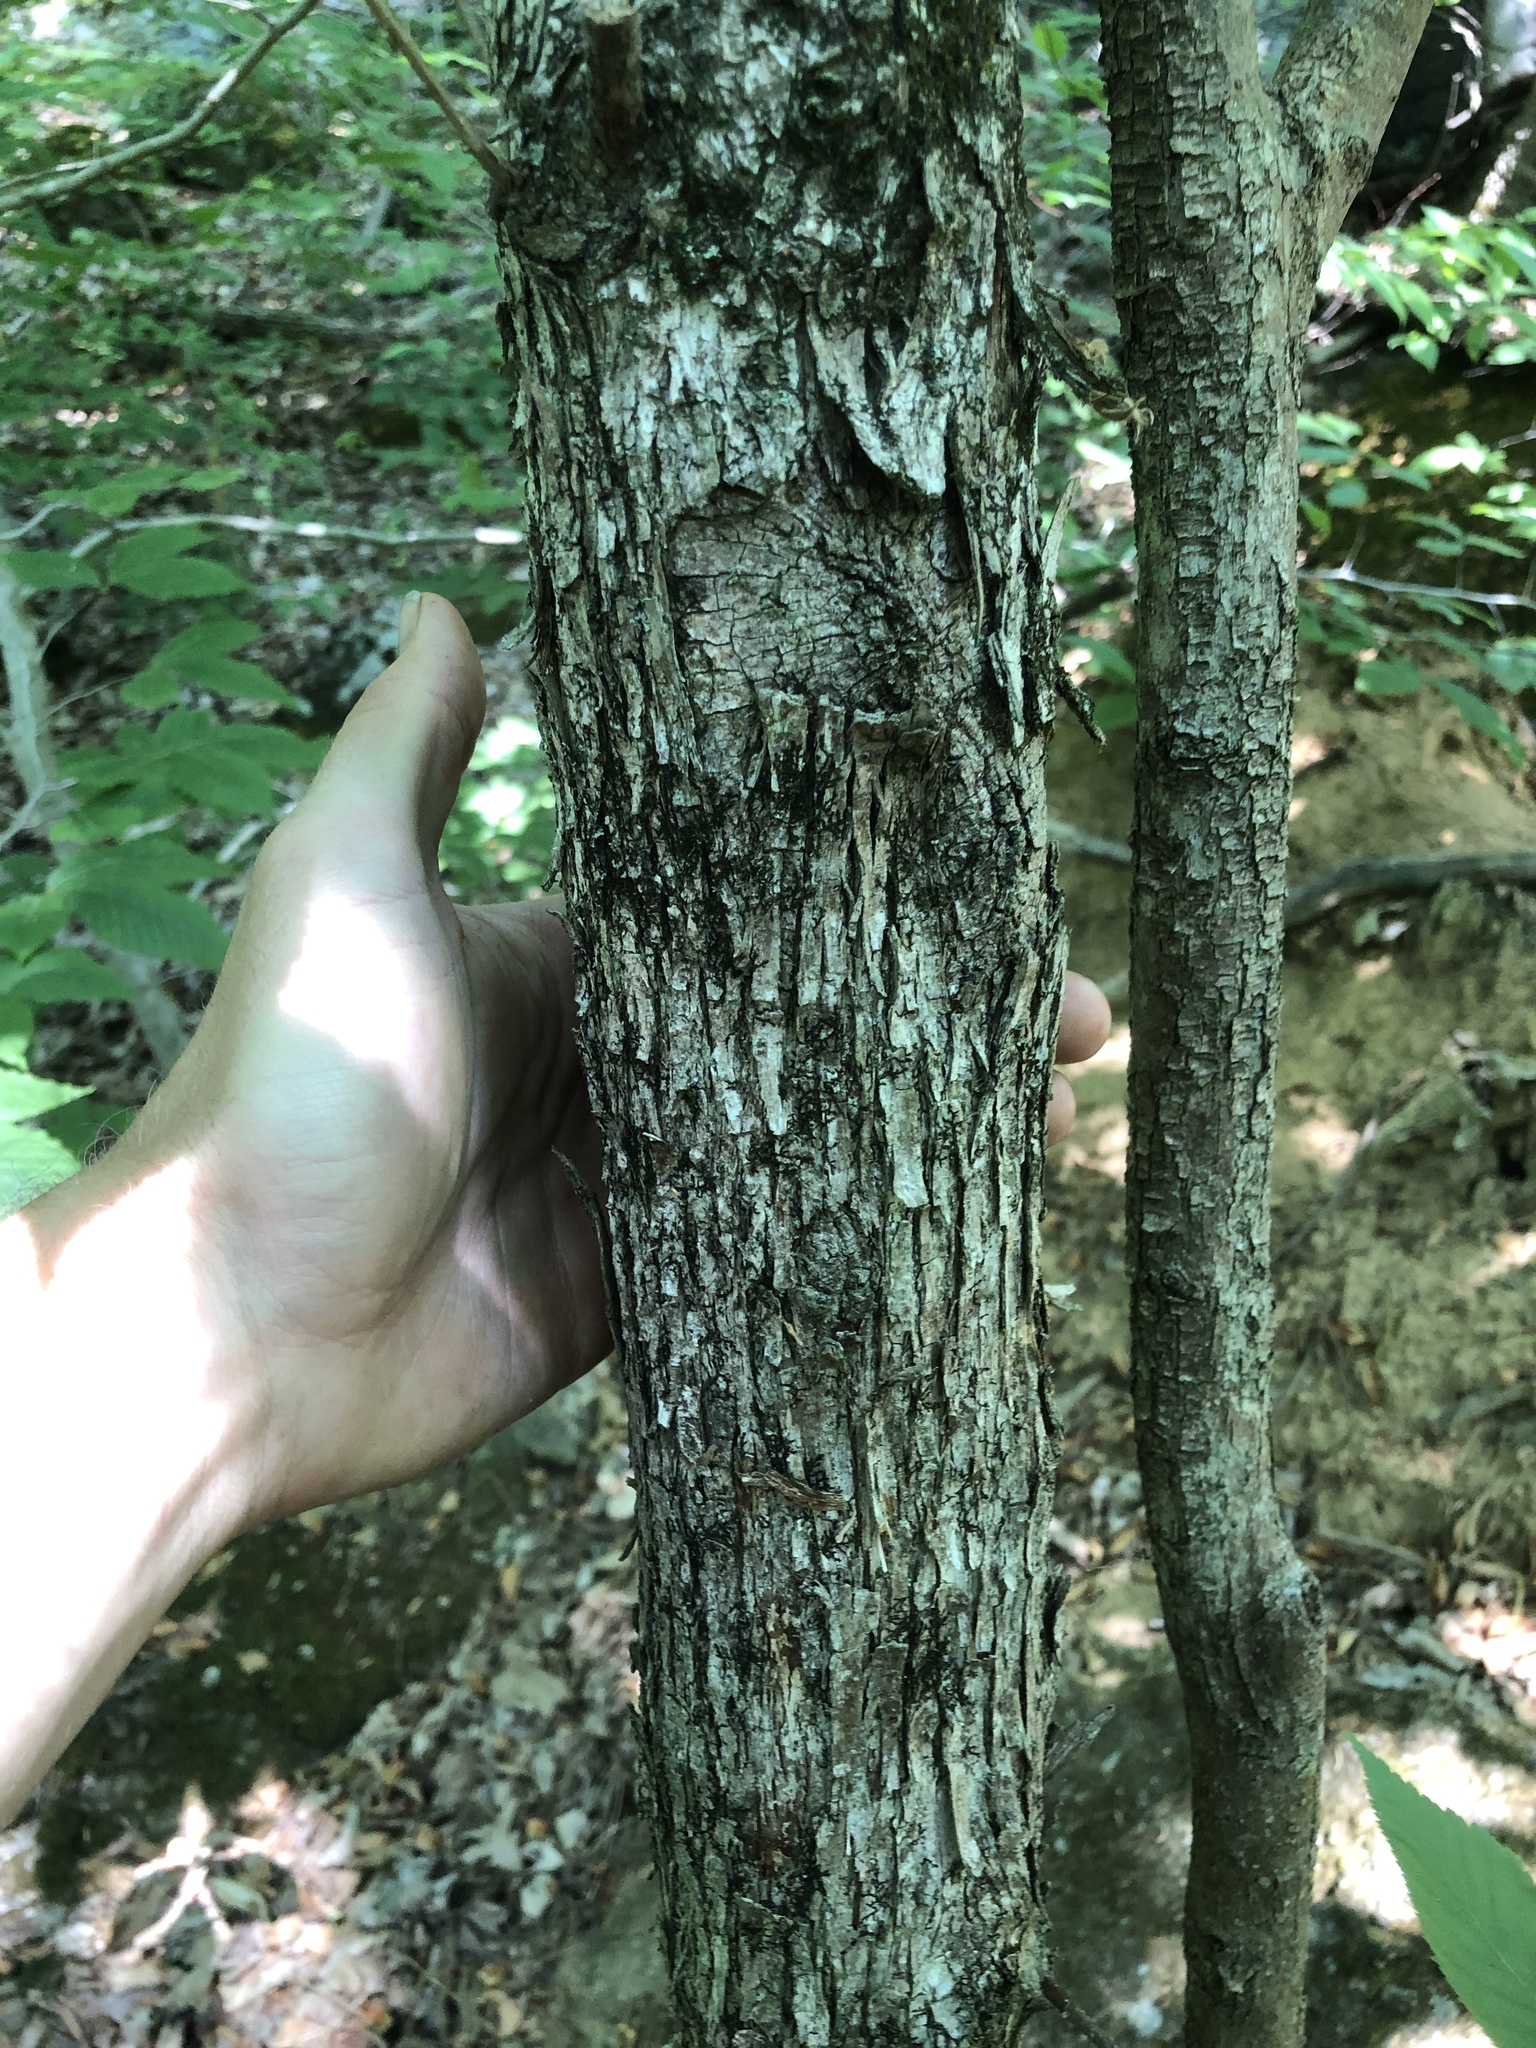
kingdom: Plantae
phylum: Tracheophyta
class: Magnoliopsida
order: Fagales
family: Betulaceae
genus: Ostrya
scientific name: Ostrya virginiana
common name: Ironwood
